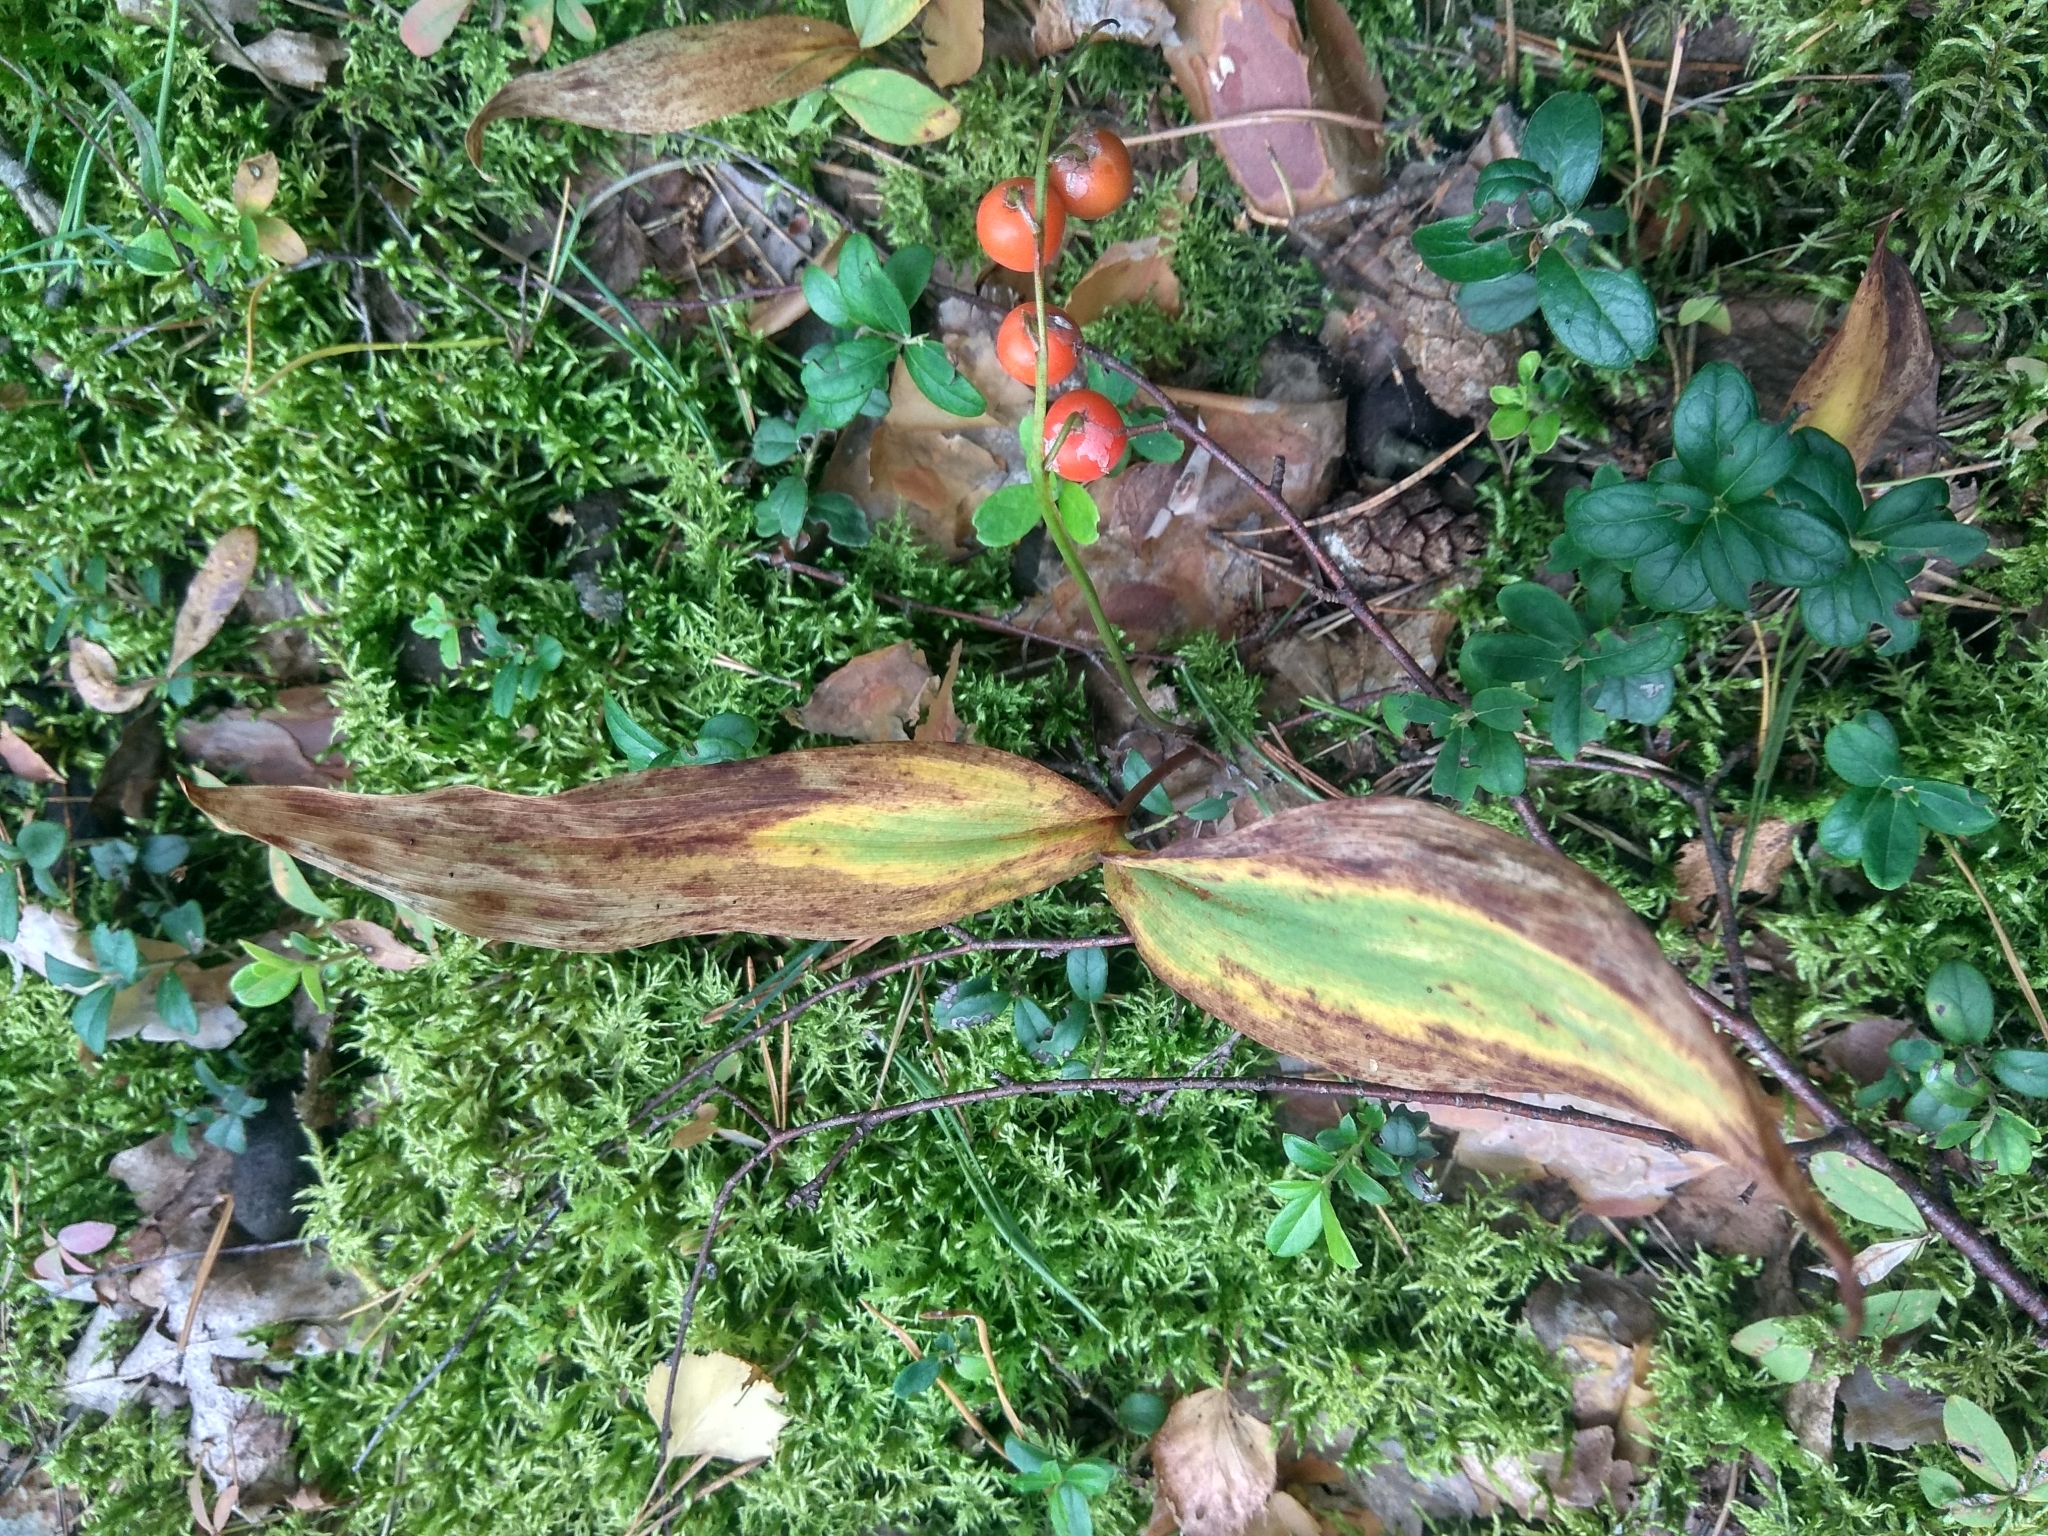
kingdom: Plantae
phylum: Tracheophyta
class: Liliopsida
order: Asparagales
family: Asparagaceae
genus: Convallaria
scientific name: Convallaria majalis
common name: Lily-of-the-valley
